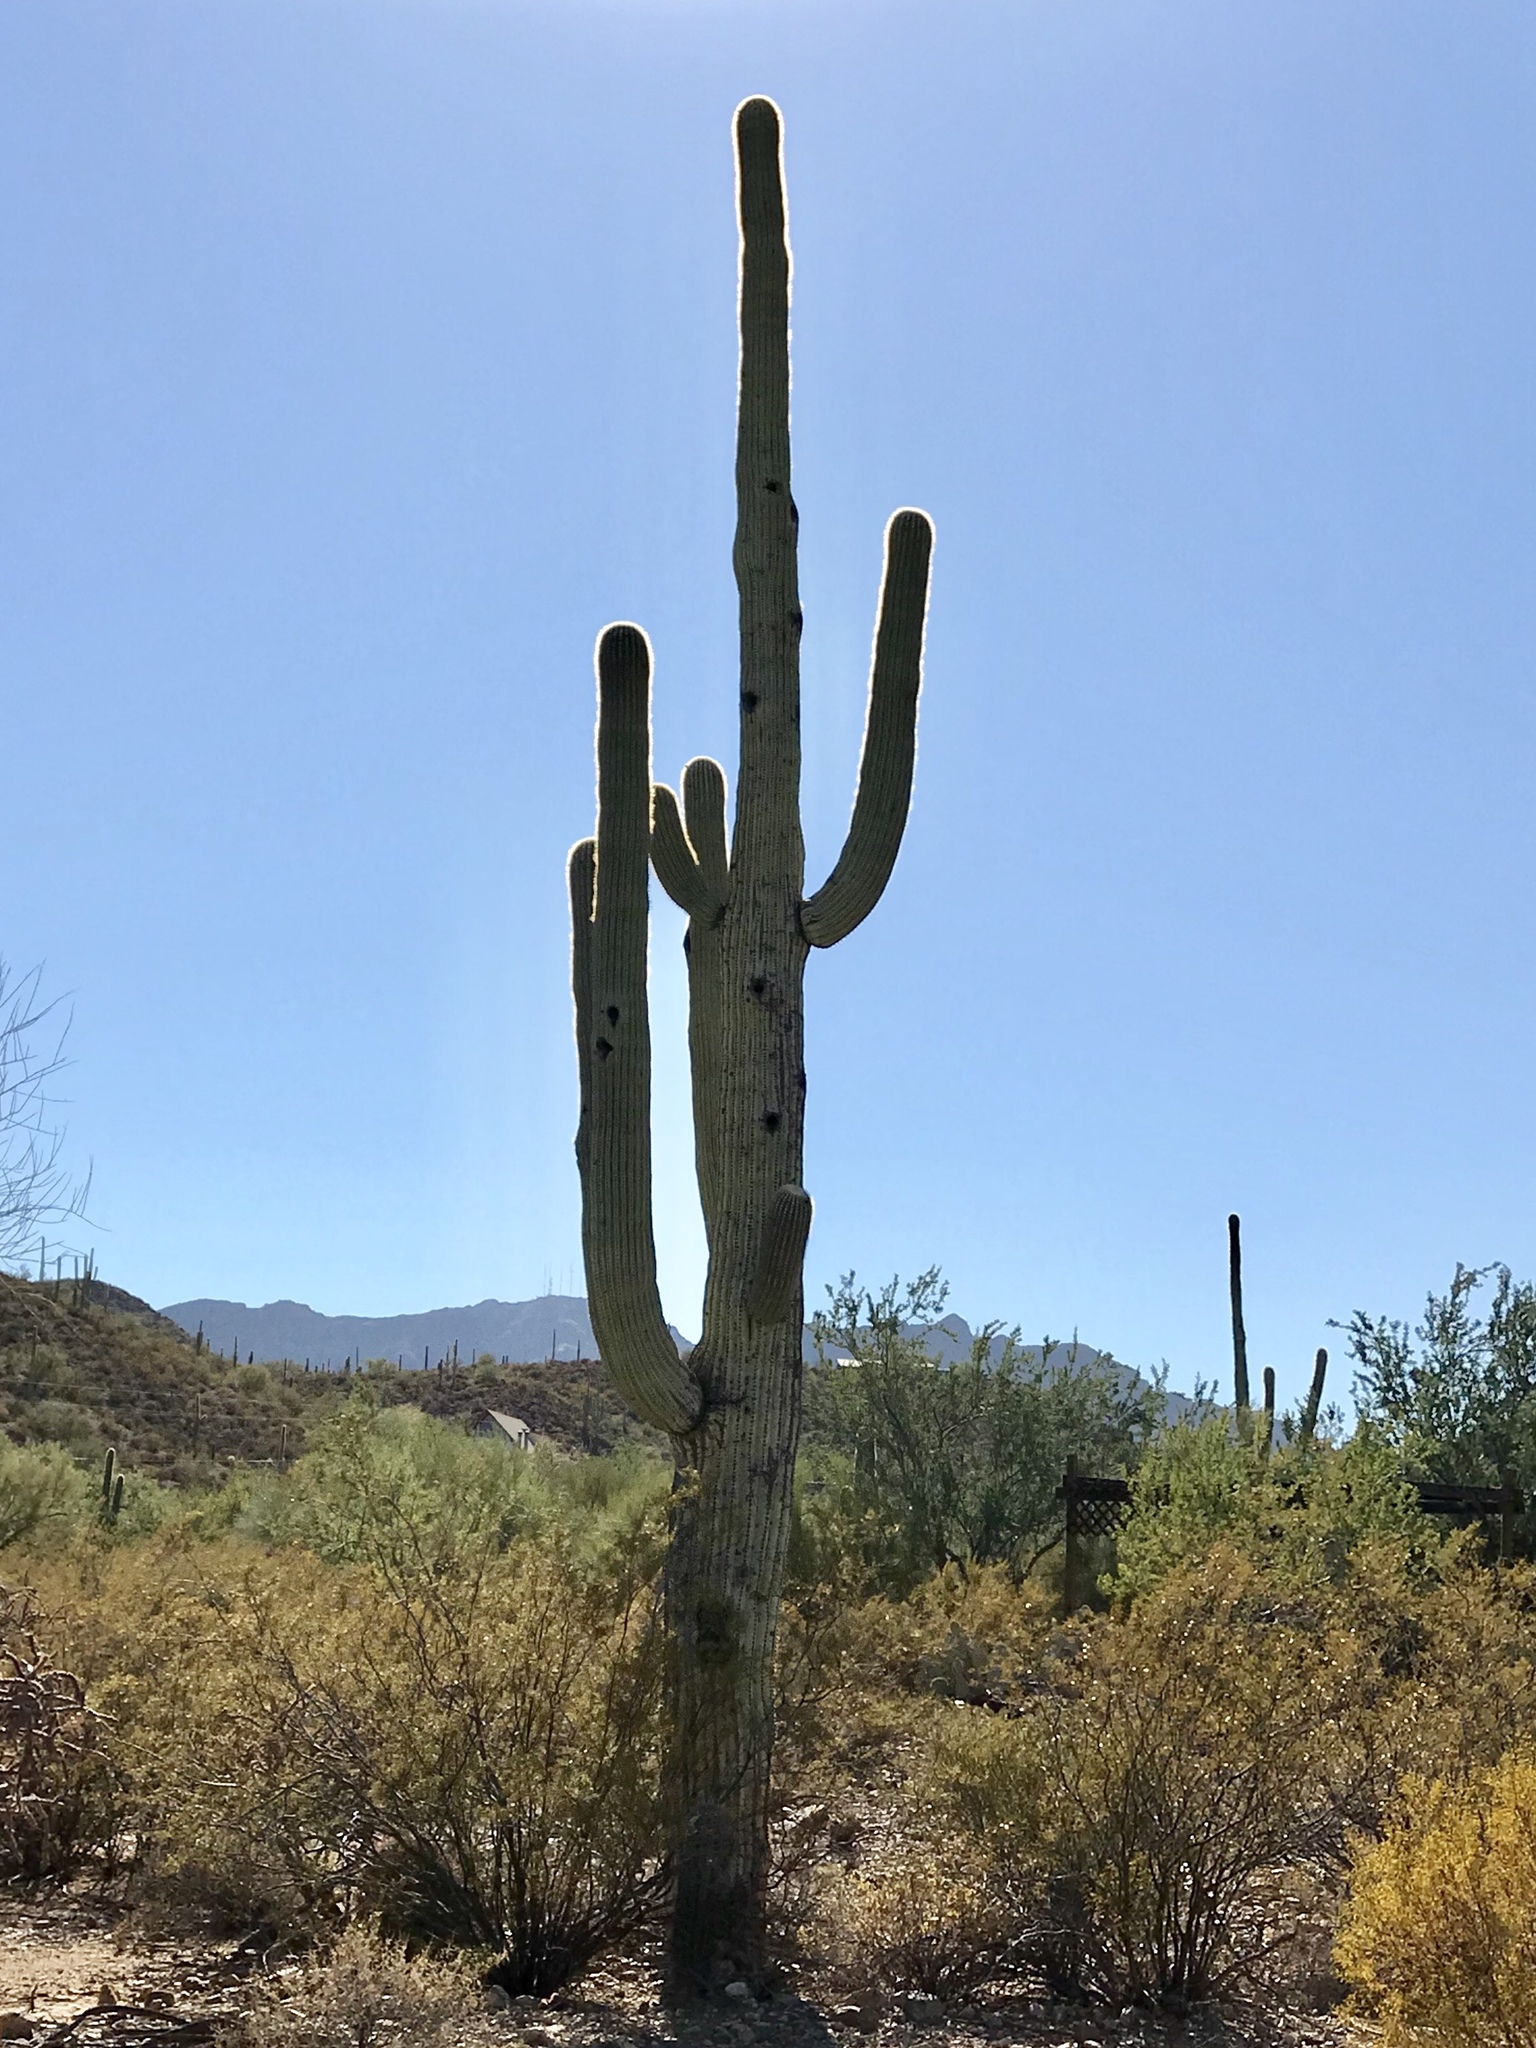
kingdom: Plantae
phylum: Tracheophyta
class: Magnoliopsida
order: Caryophyllales
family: Cactaceae
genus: Carnegiea
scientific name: Carnegiea gigantea
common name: Saguaro
